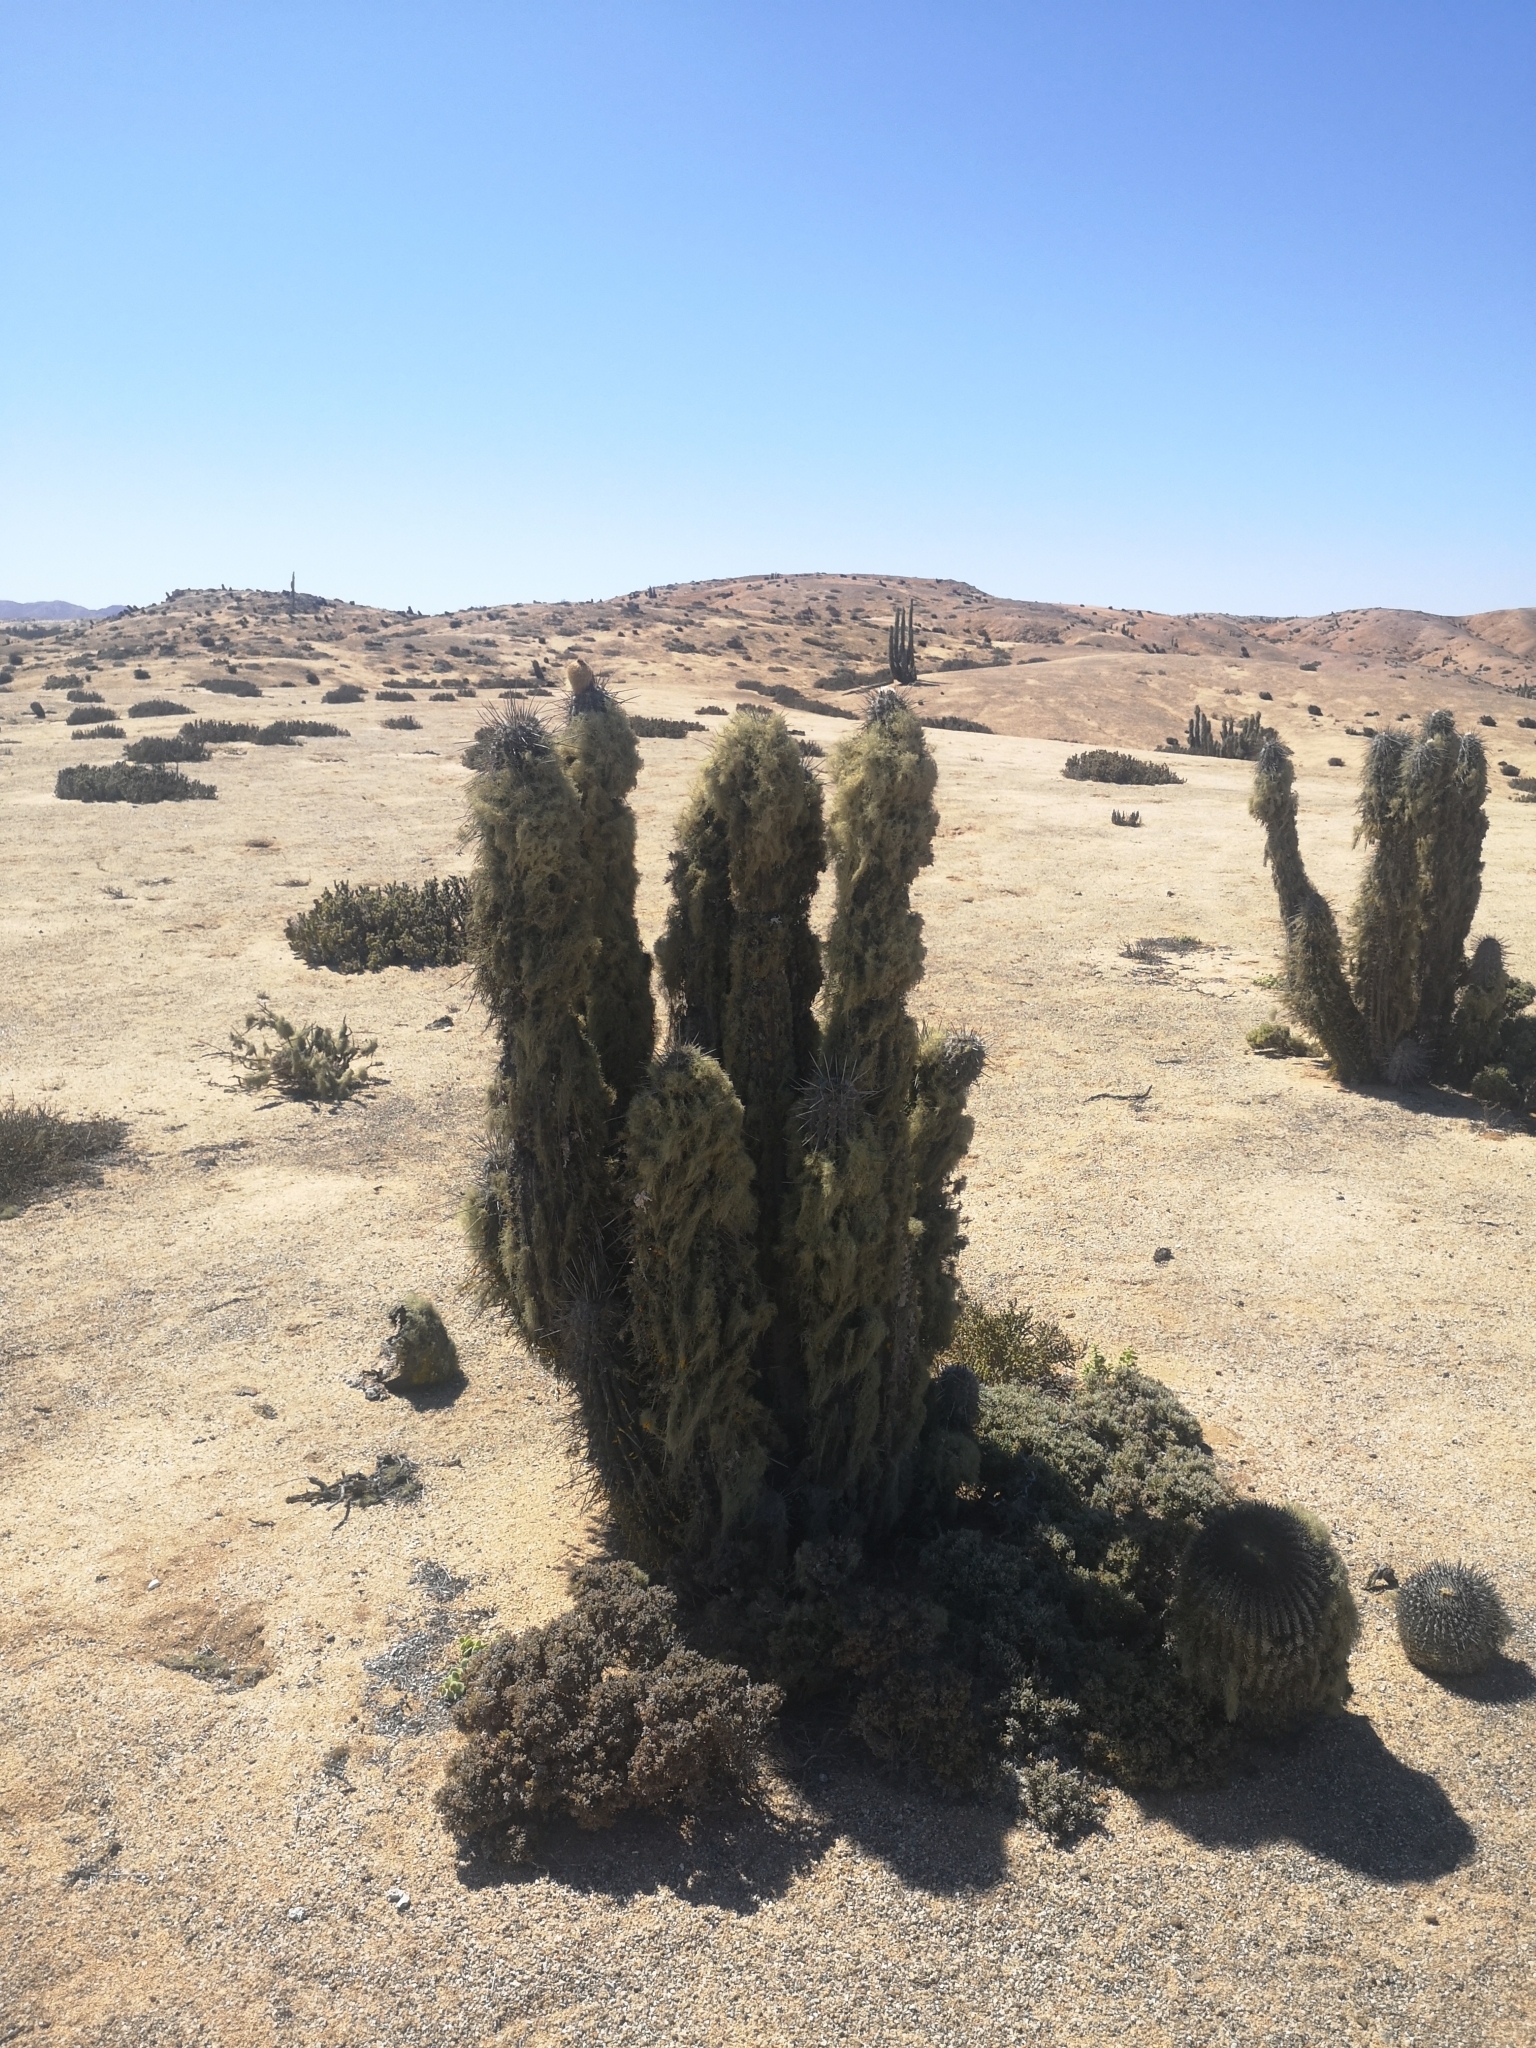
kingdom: Plantae
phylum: Tracheophyta
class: Magnoliopsida
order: Caryophyllales
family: Cactaceae
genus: Eulychnia
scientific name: Eulychnia iquiquensis
